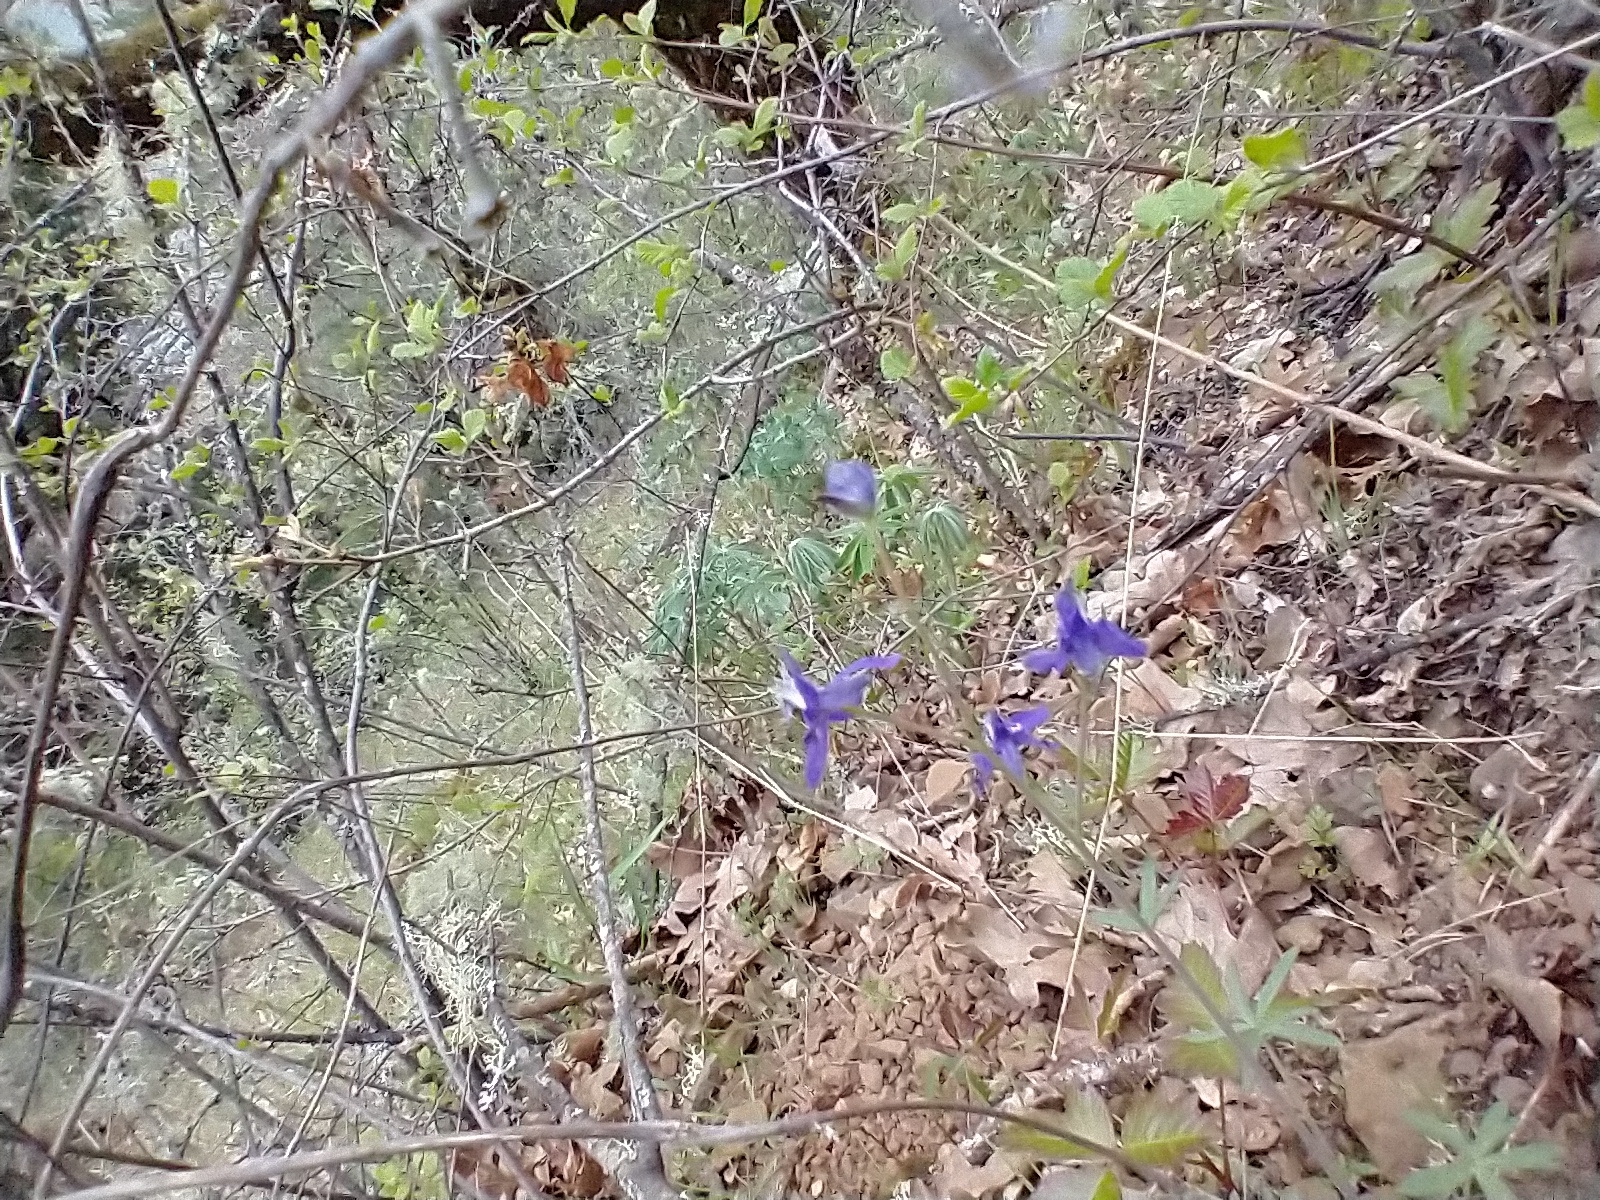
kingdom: Plantae
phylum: Tracheophyta
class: Magnoliopsida
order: Ranunculales
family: Ranunculaceae
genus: Delphinium
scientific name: Delphinium nuttallianum
